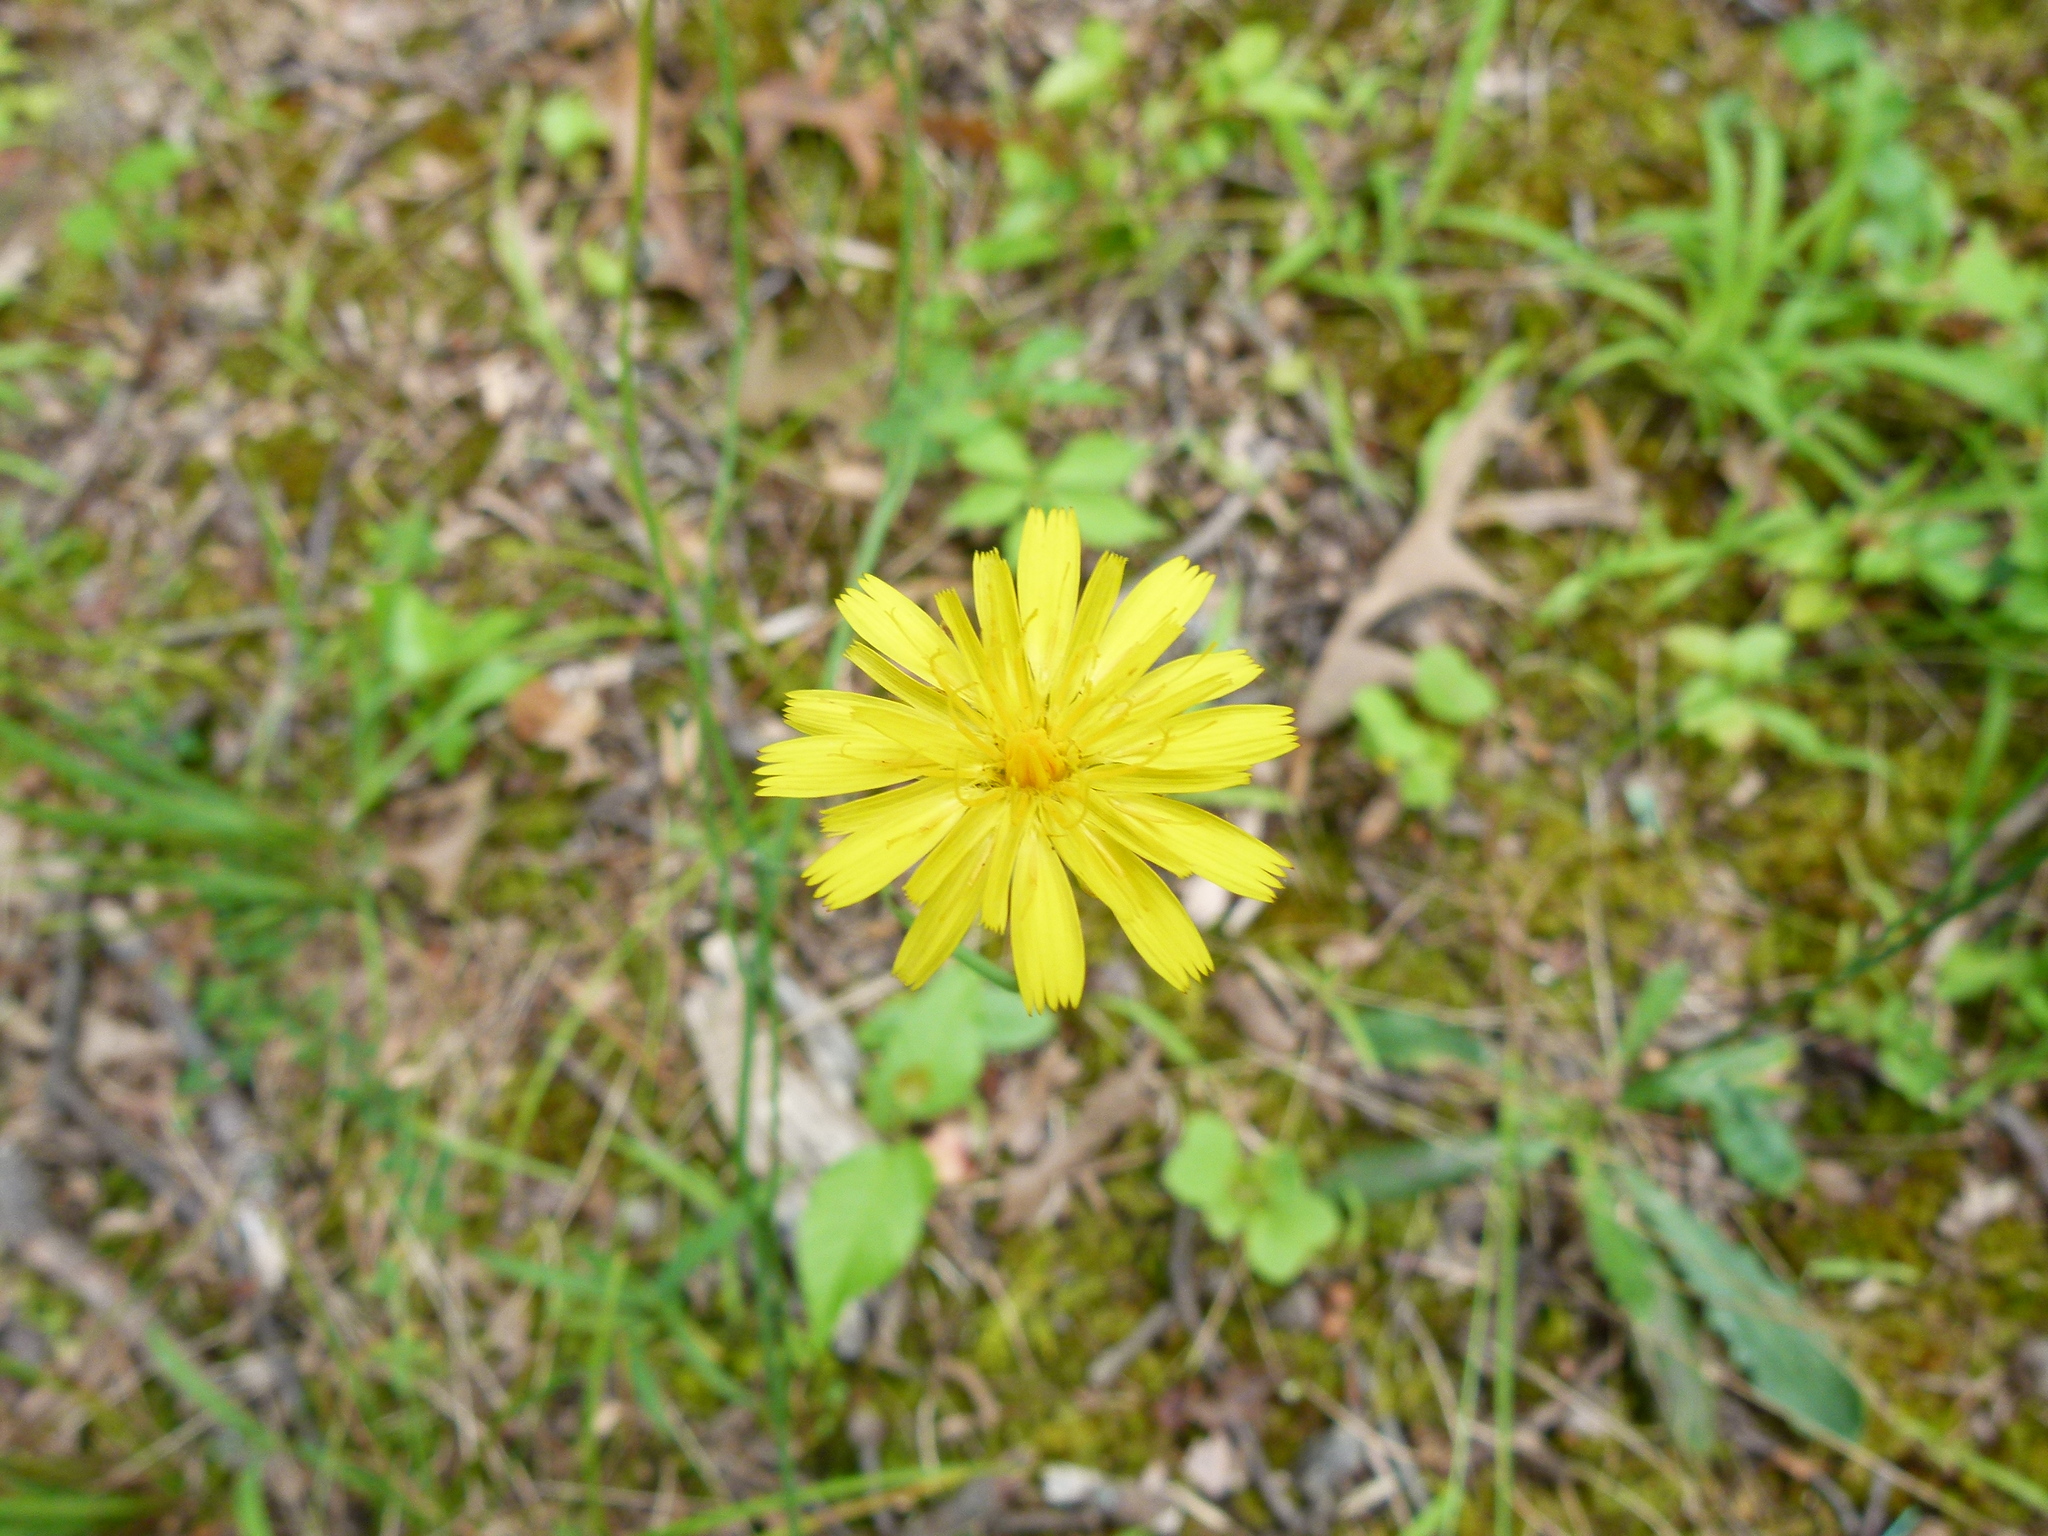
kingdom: Plantae
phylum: Tracheophyta
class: Magnoliopsida
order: Asterales
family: Asteraceae
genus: Hypochaeris
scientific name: Hypochaeris radicata
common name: Flatweed
